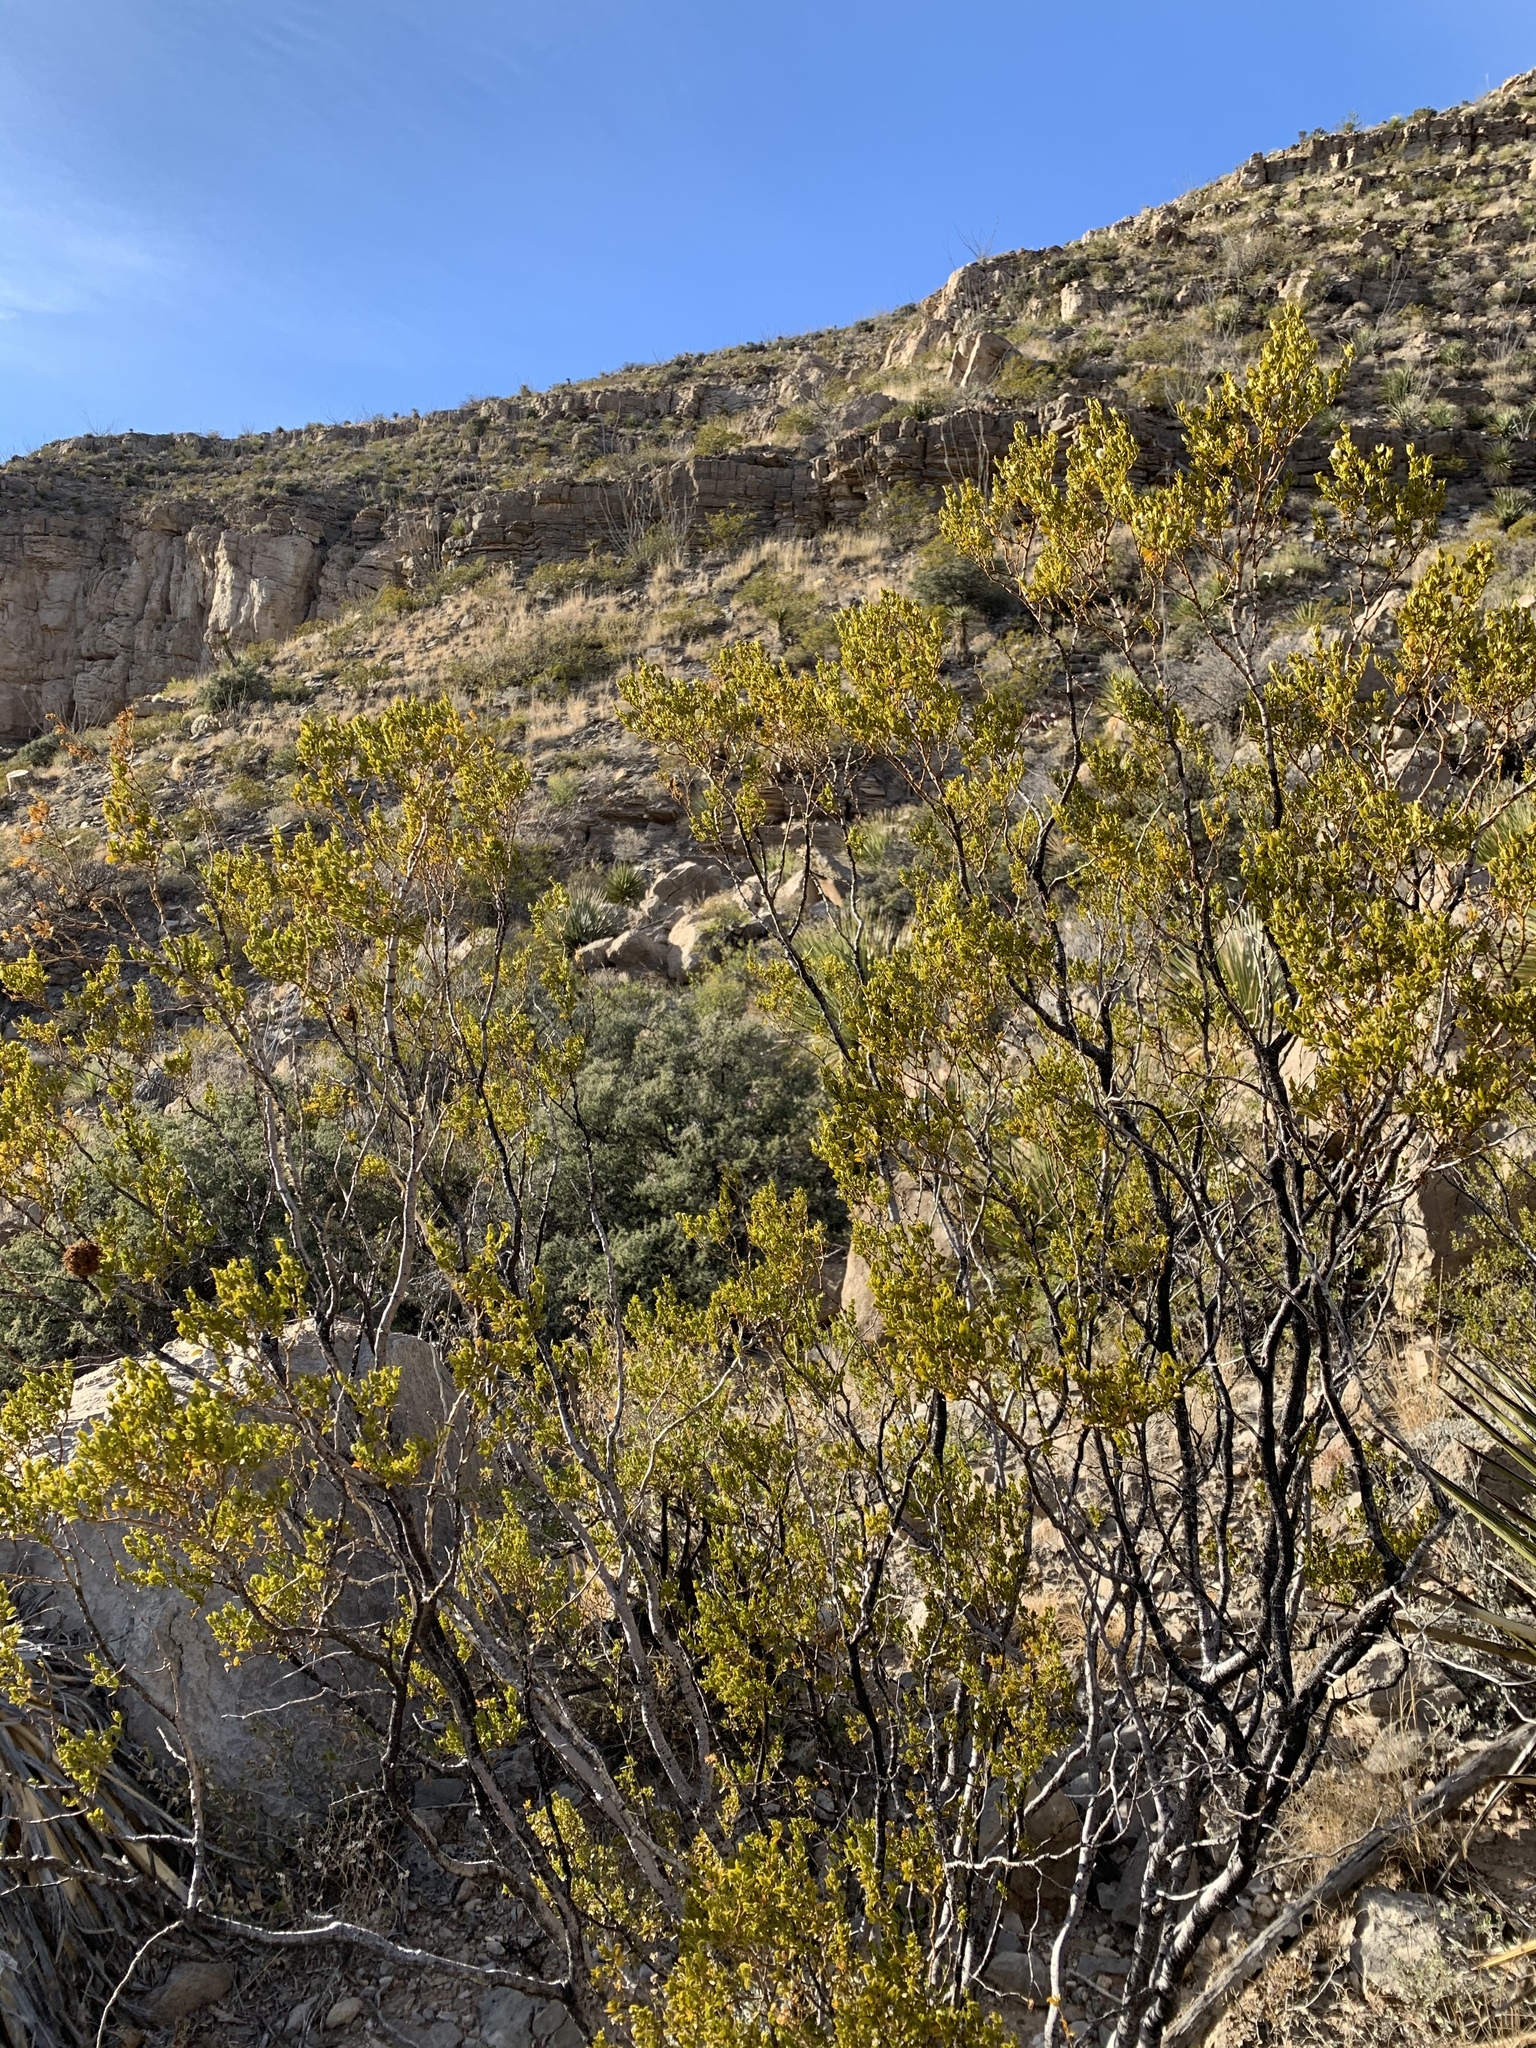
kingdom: Plantae
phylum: Tracheophyta
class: Magnoliopsida
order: Zygophyllales
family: Zygophyllaceae
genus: Larrea
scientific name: Larrea tridentata
